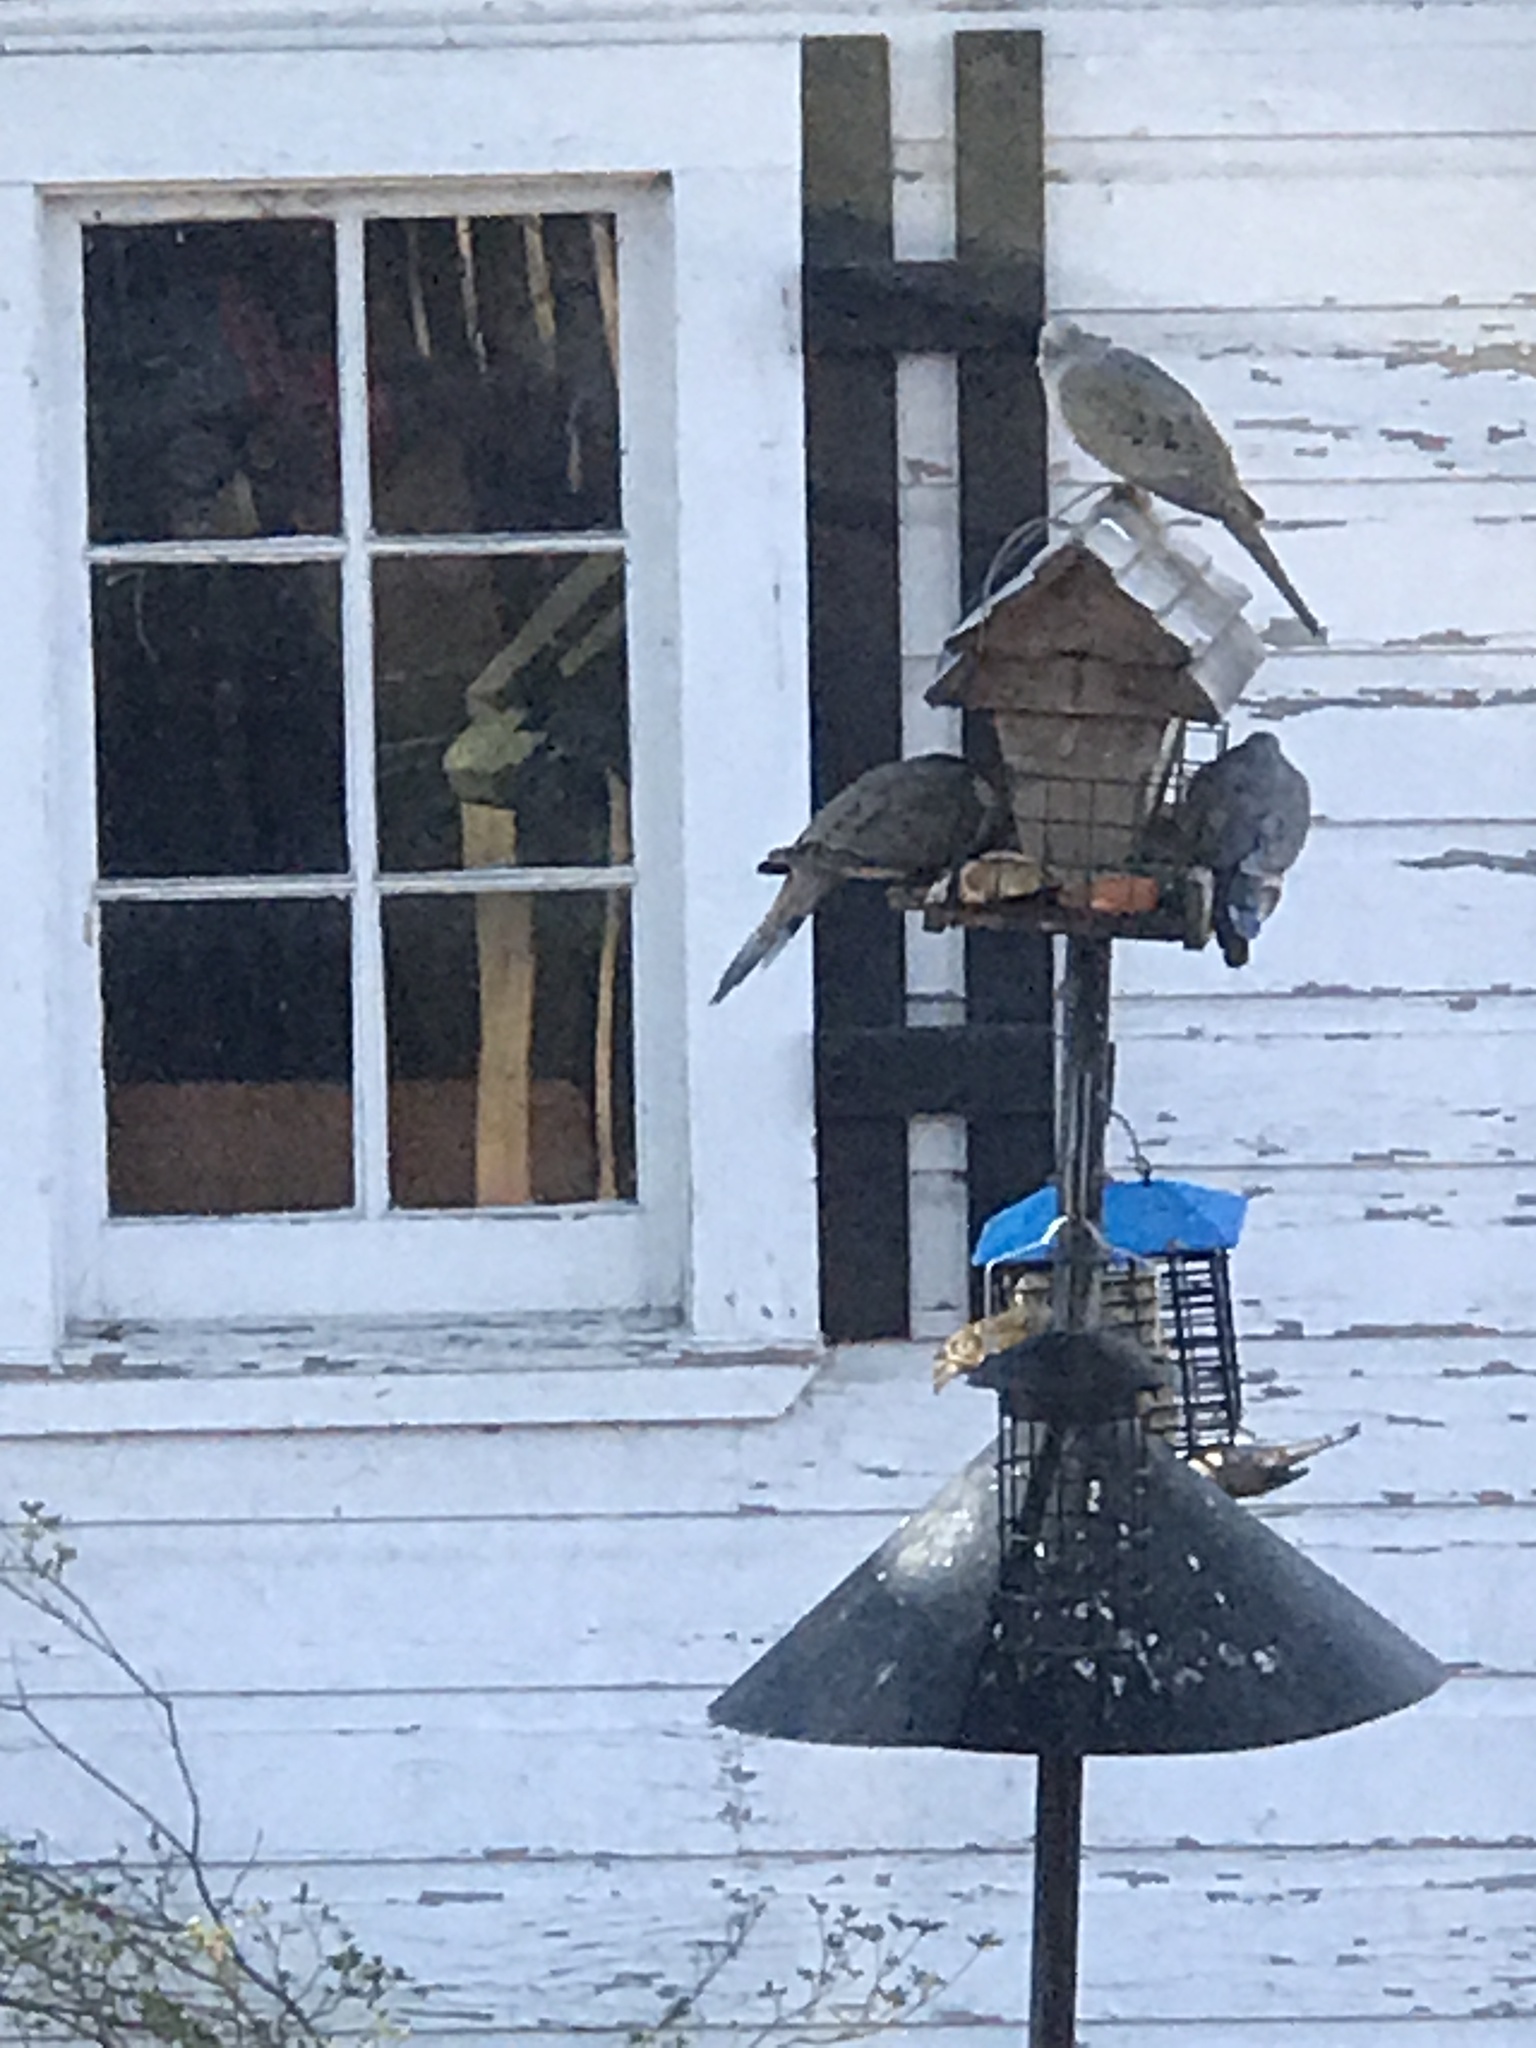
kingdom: Animalia
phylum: Chordata
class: Aves
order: Columbiformes
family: Columbidae
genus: Zenaida
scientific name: Zenaida macroura
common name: Mourning dove
